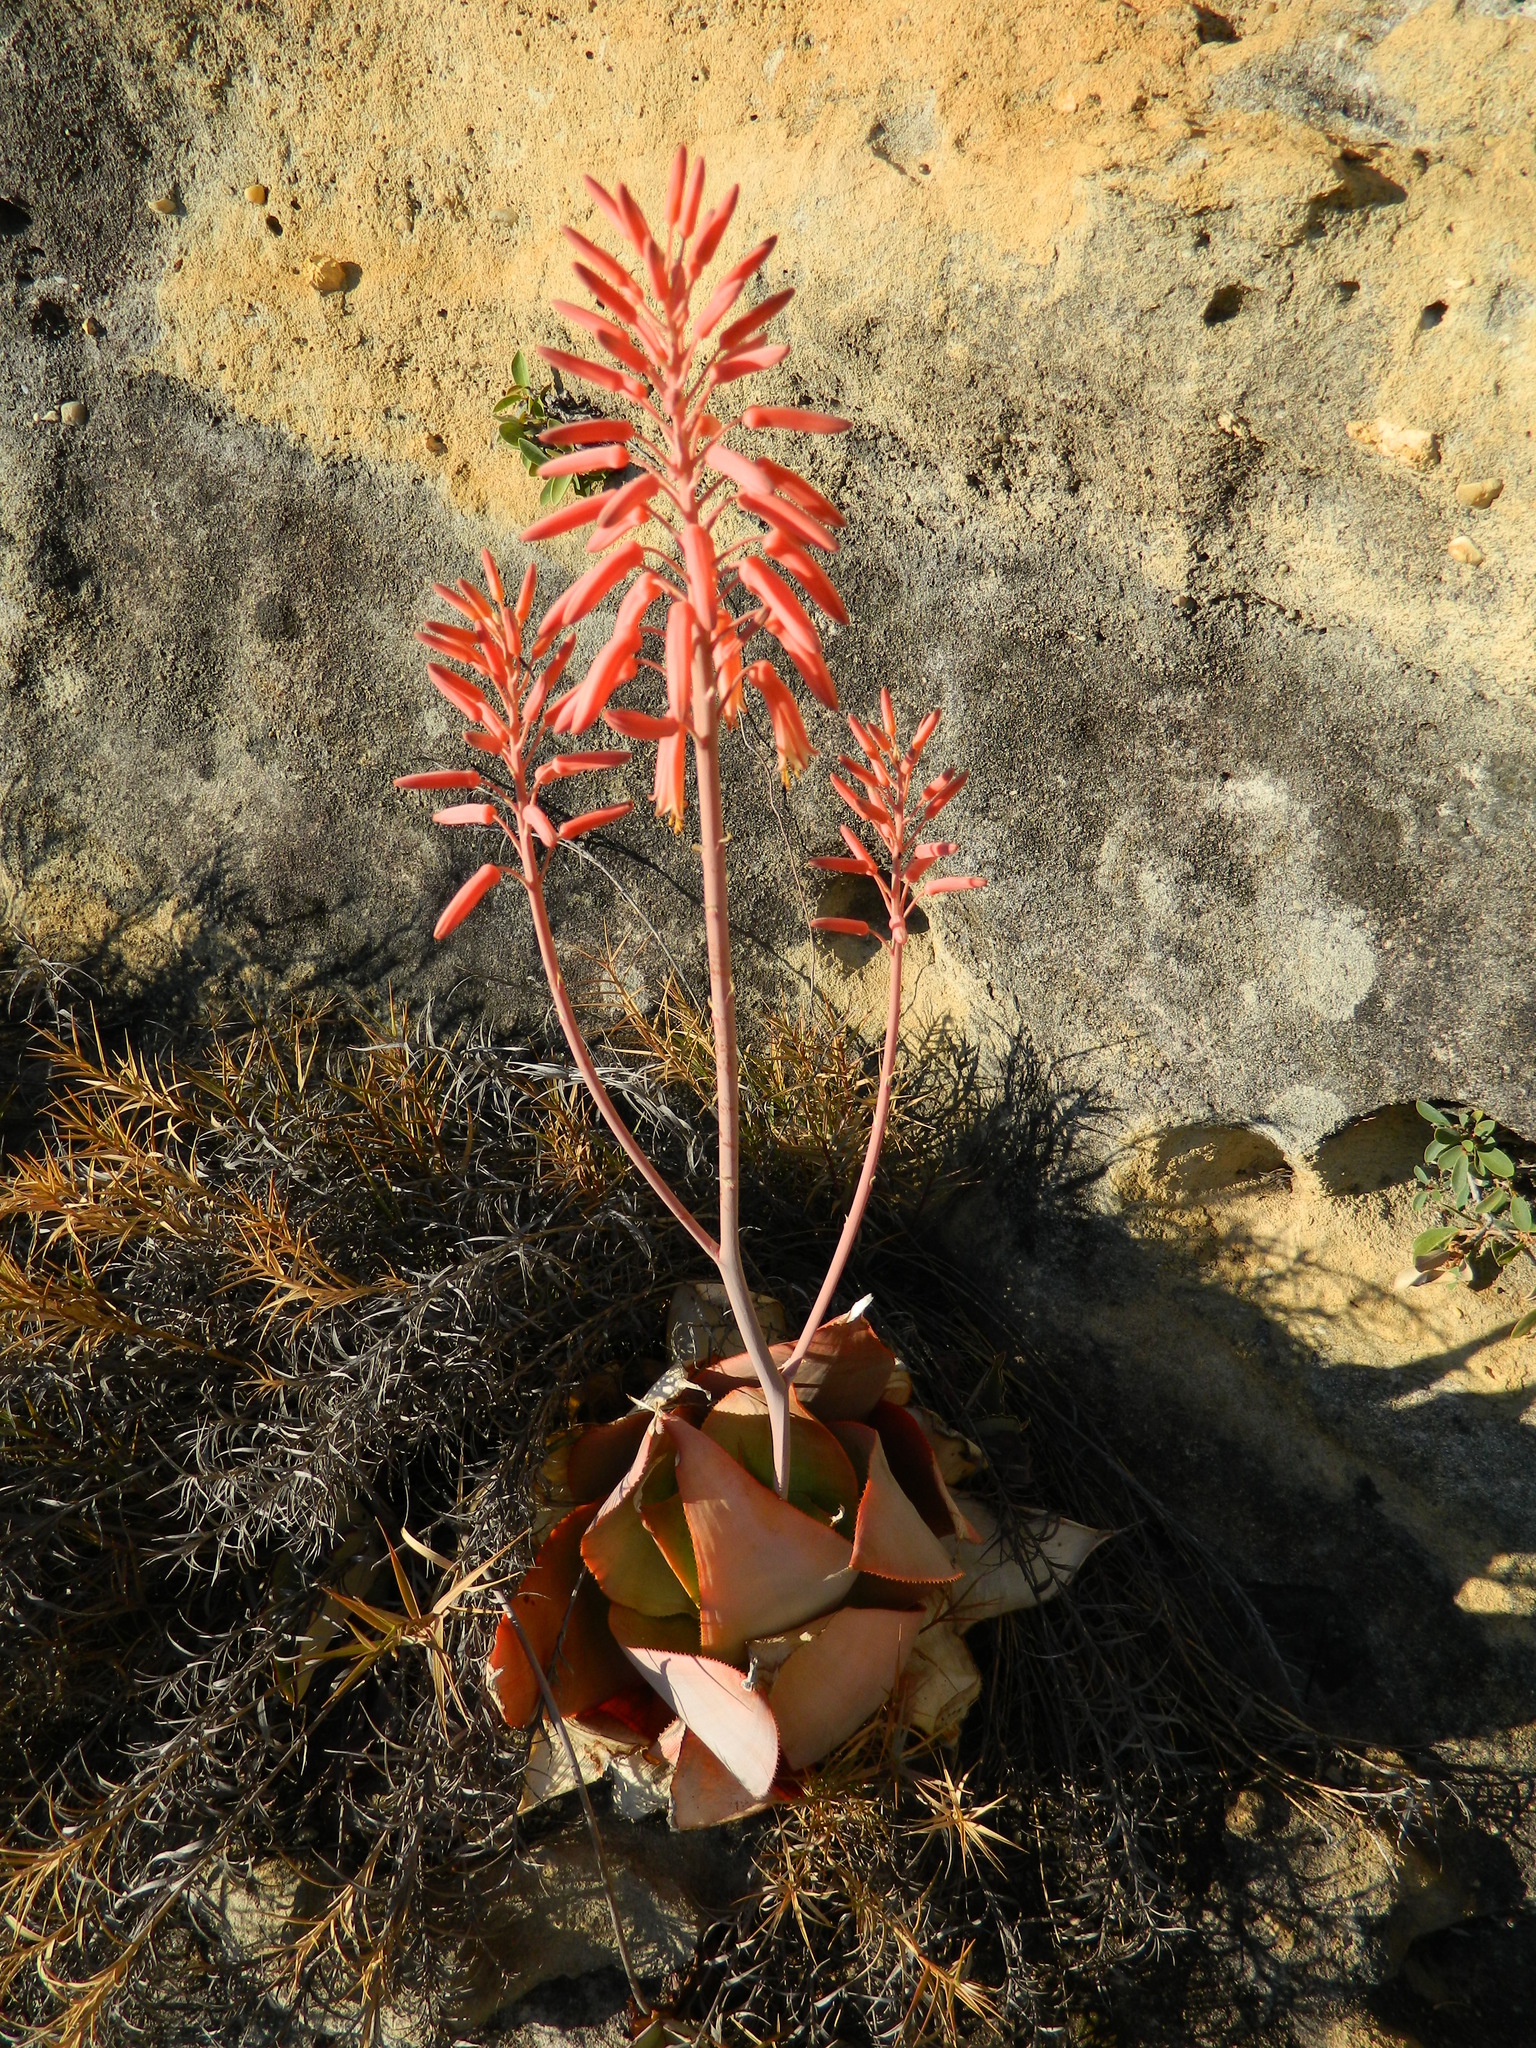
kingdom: Plantae
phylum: Tracheophyta
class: Liliopsida
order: Asparagales
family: Asphodelaceae
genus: Aloe
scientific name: Aloe imalotensis
